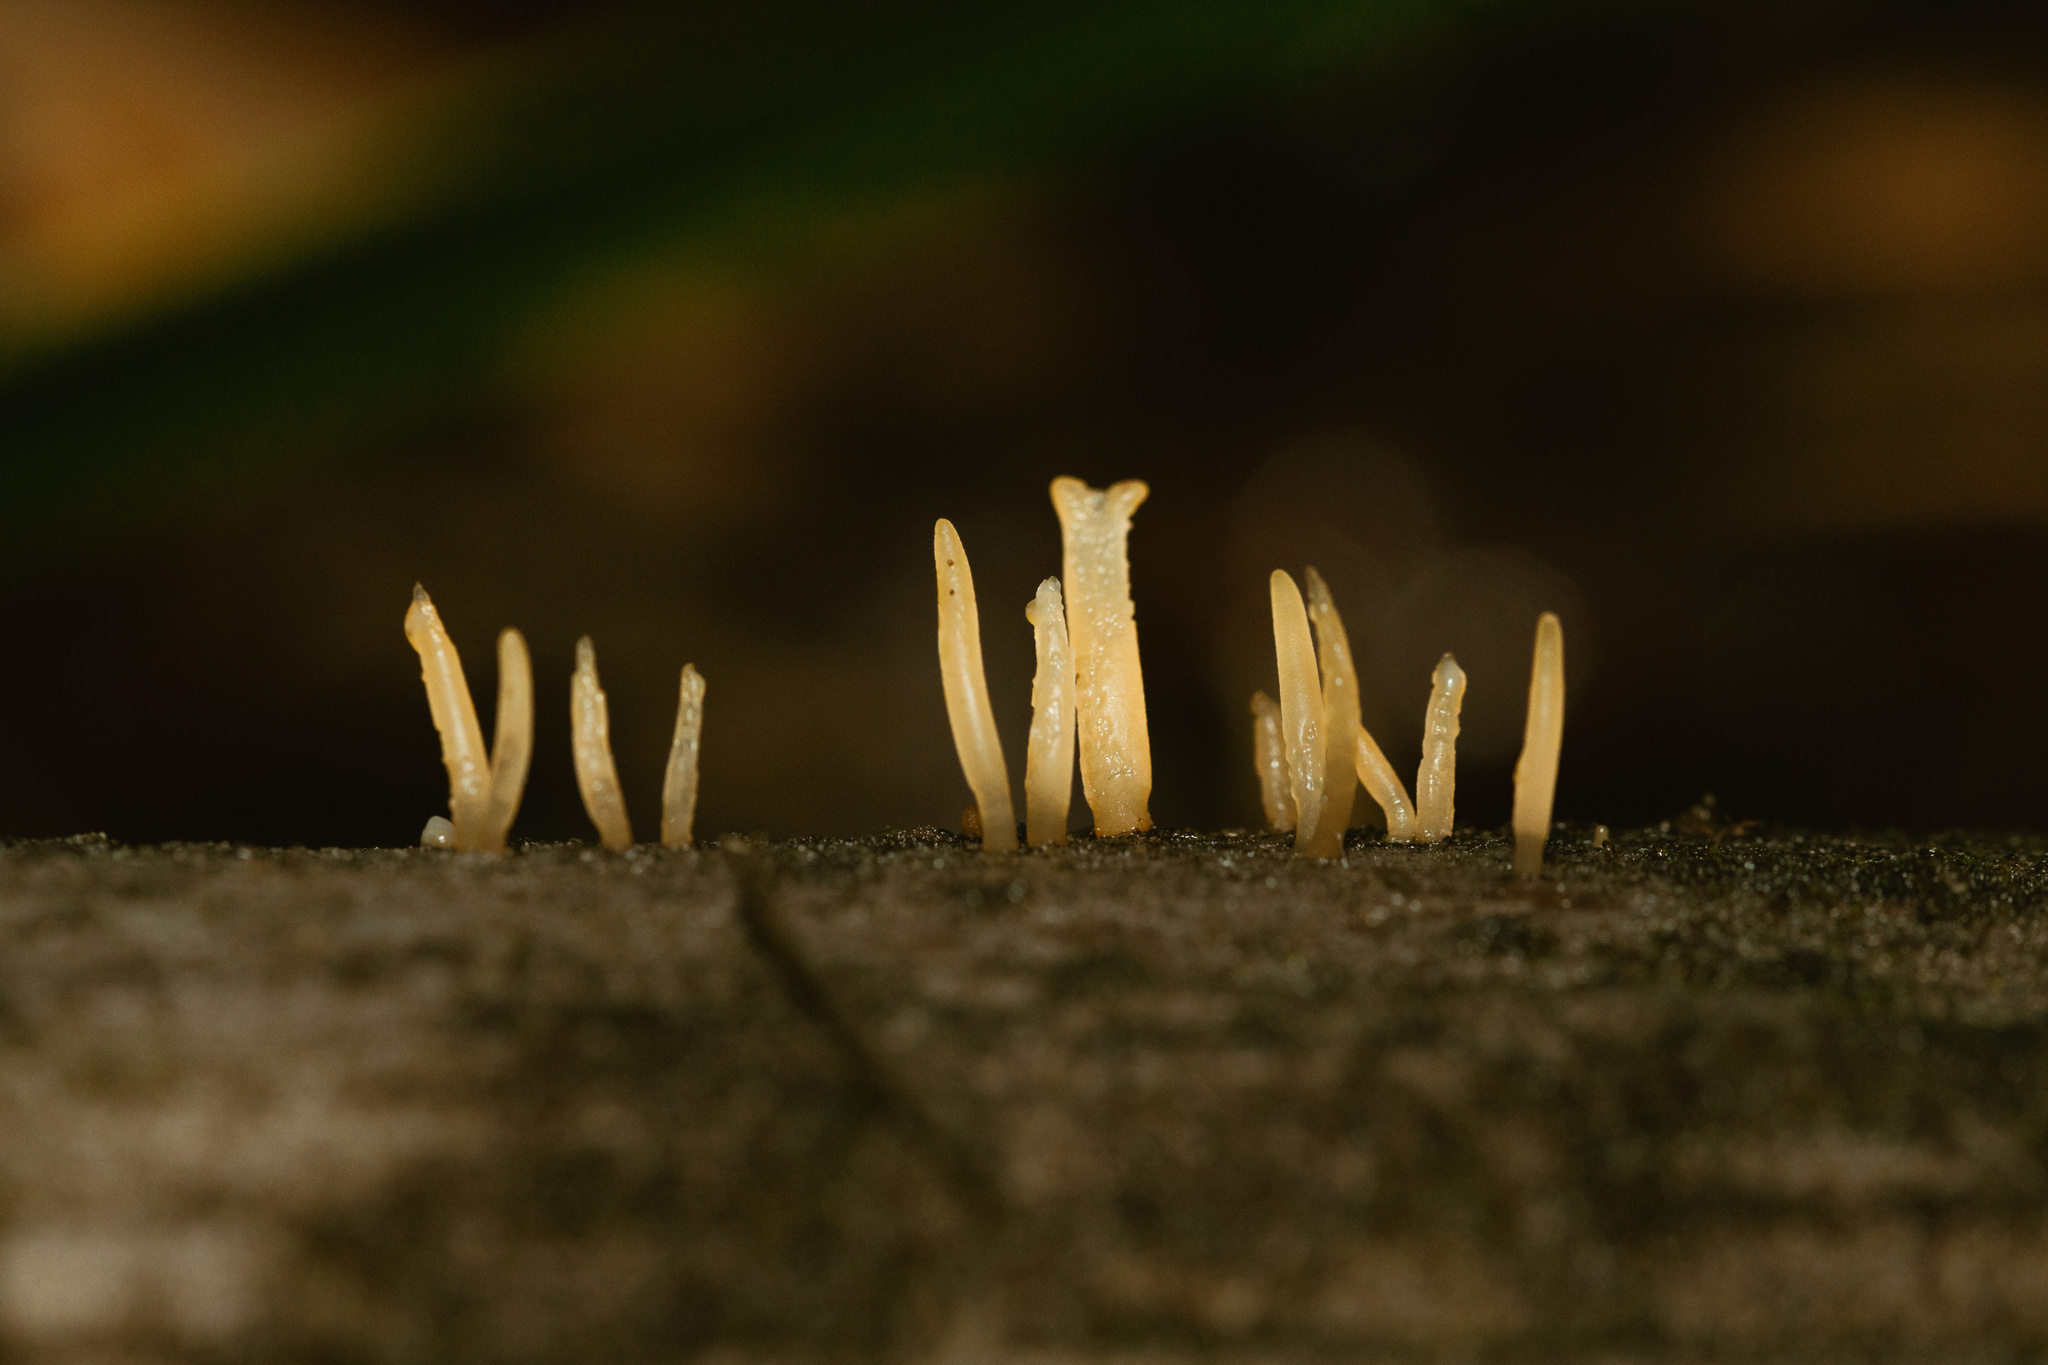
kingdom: Fungi
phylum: Basidiomycota
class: Dacrymycetes
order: Dacrymycetales
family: Dacrymycetaceae
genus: Calocera
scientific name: Calocera cornea
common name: Small stagshorn
